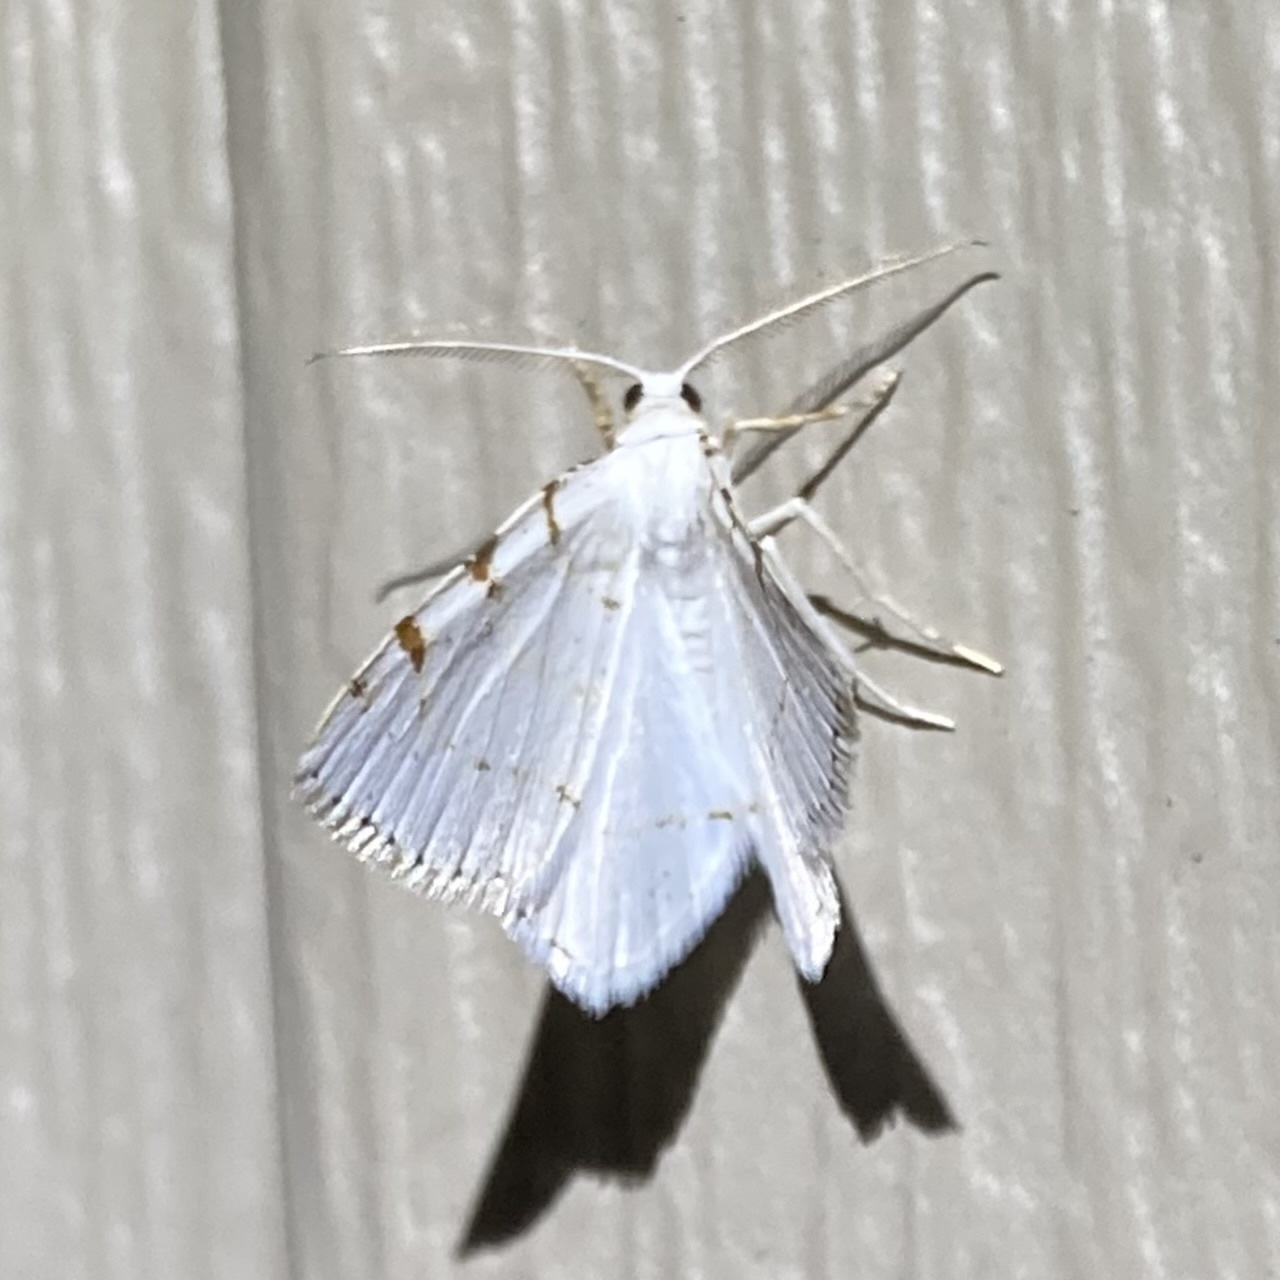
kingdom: Animalia
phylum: Arthropoda
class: Insecta
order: Lepidoptera
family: Geometridae
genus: Macaria
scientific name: Macaria pustularia
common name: Lesser maple spanworm moth
